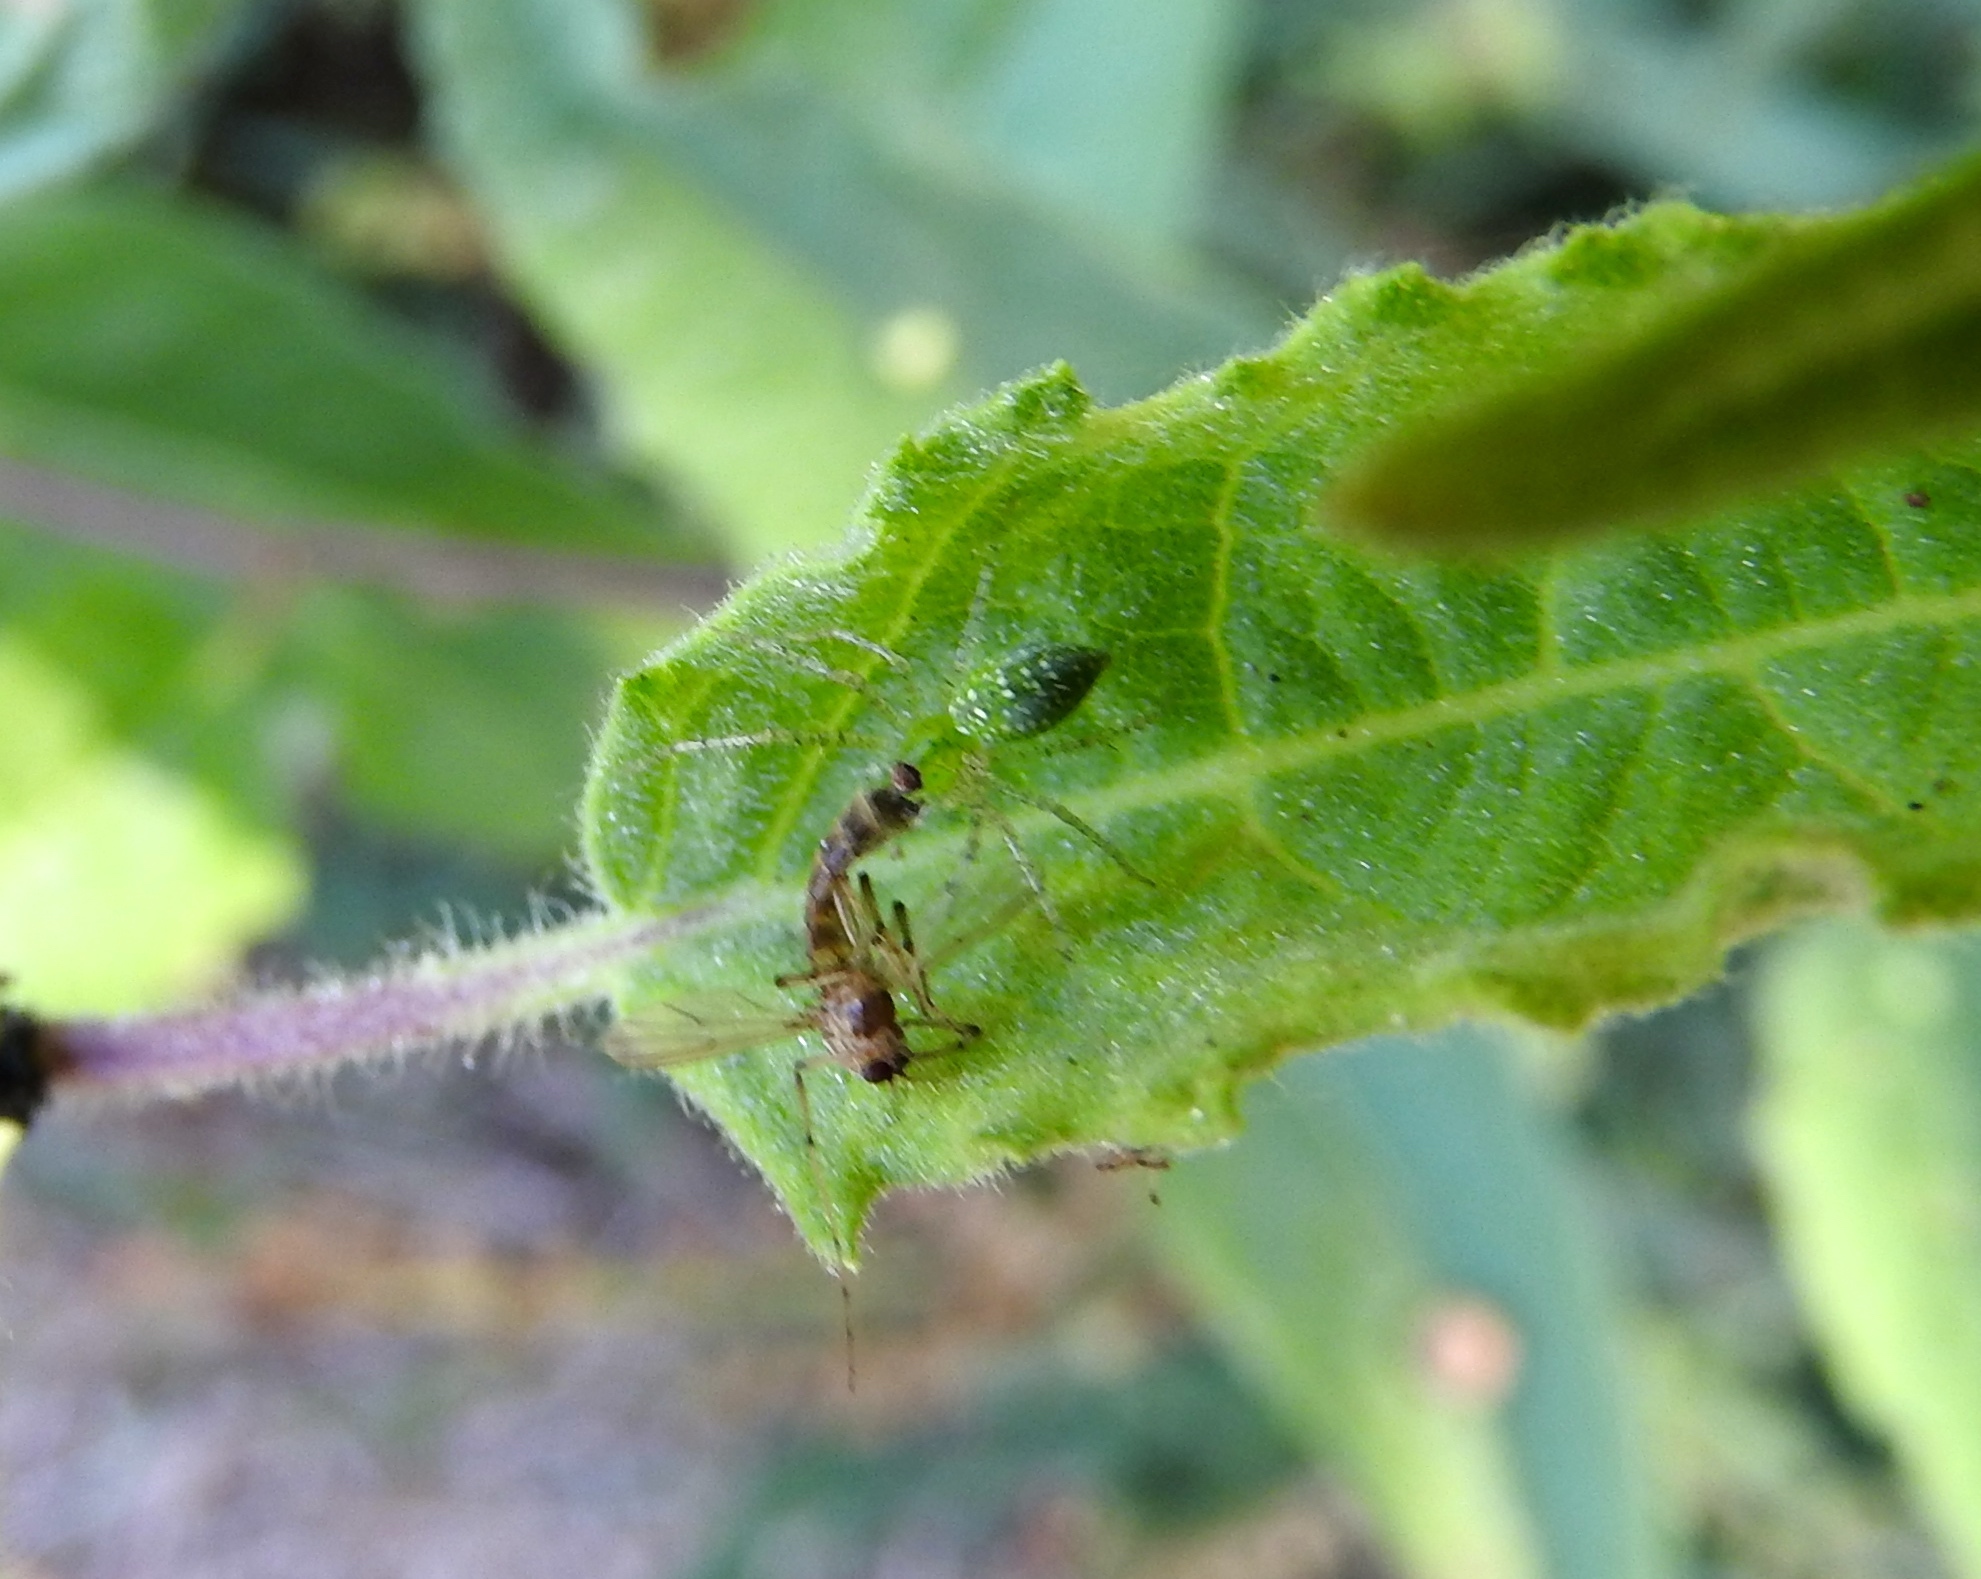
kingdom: Animalia
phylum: Arthropoda
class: Arachnida
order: Araneae
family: Oxyopidae
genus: Peucetia
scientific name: Peucetia
